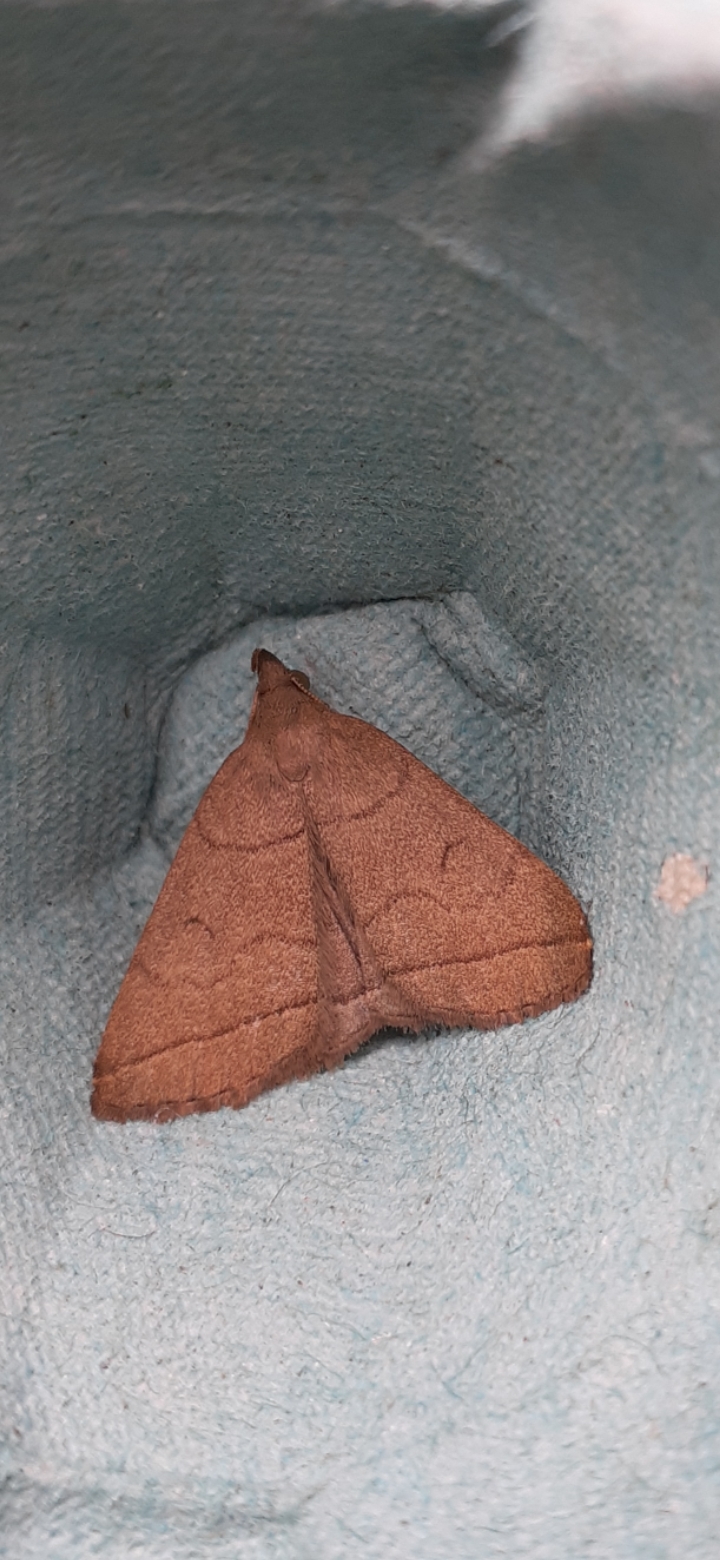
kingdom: Animalia
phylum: Arthropoda
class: Insecta
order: Lepidoptera
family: Erebidae
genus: Herminia
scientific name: Herminia tarsipennalis
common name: Fan-foot
